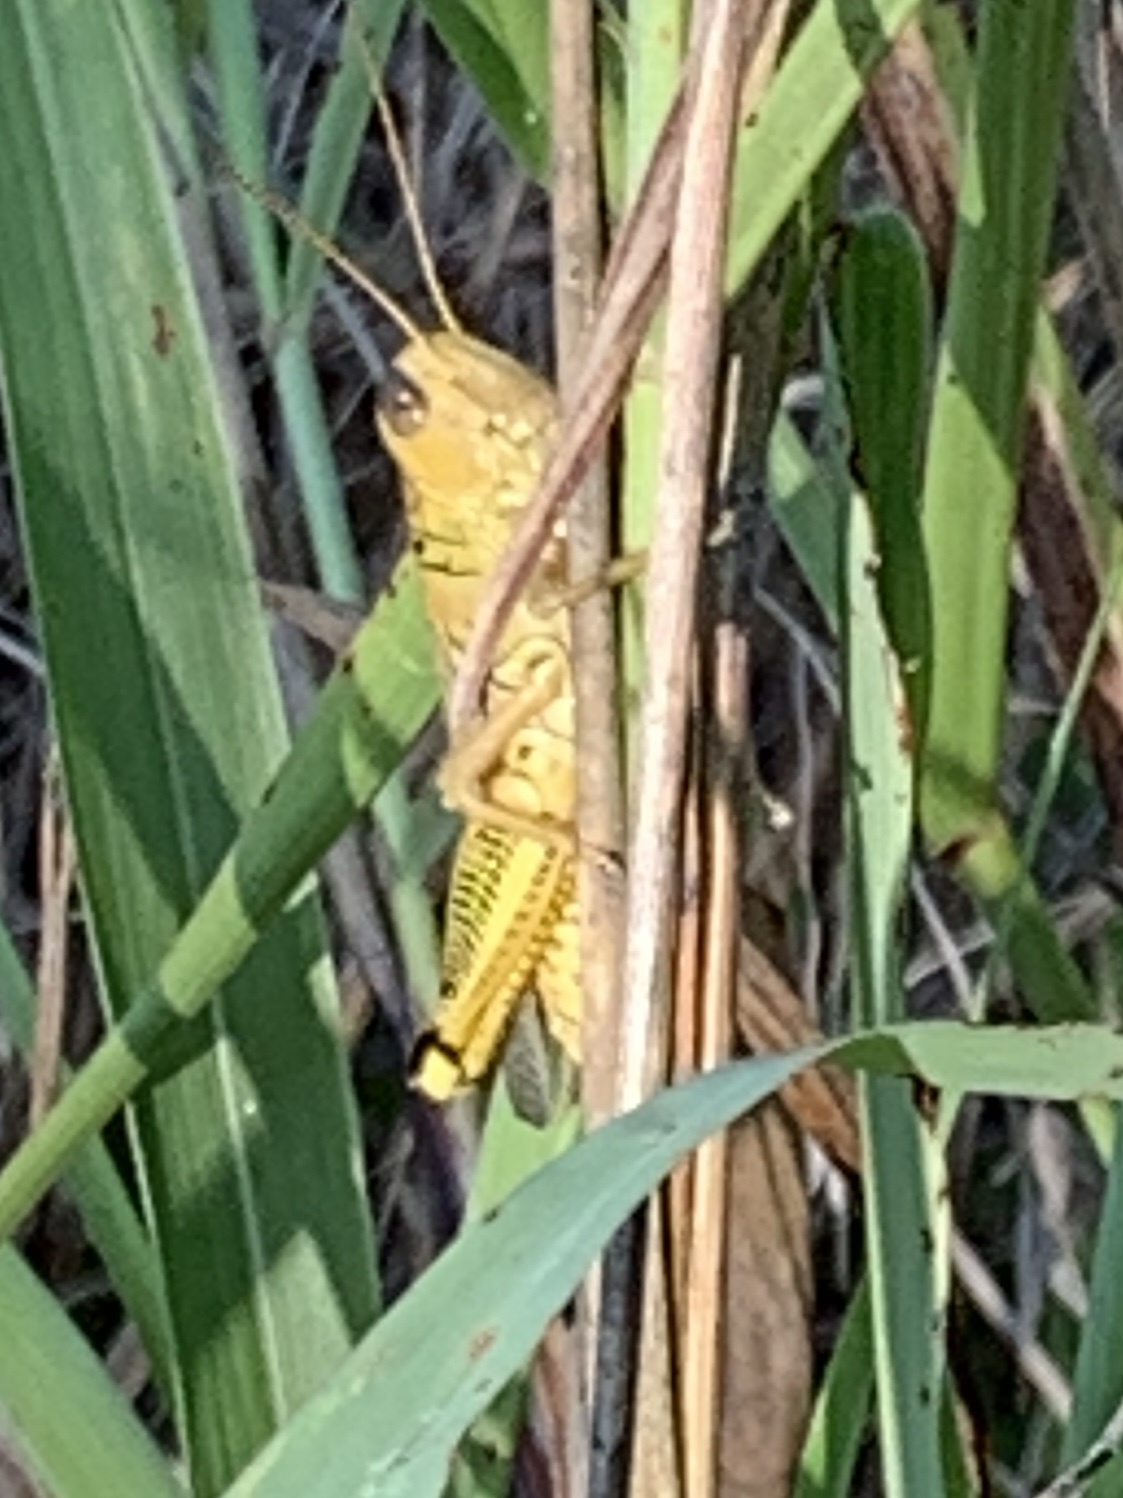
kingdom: Animalia
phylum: Arthropoda
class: Insecta
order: Orthoptera
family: Acrididae
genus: Melanoplus
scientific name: Melanoplus differentialis
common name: Differential grasshopper
